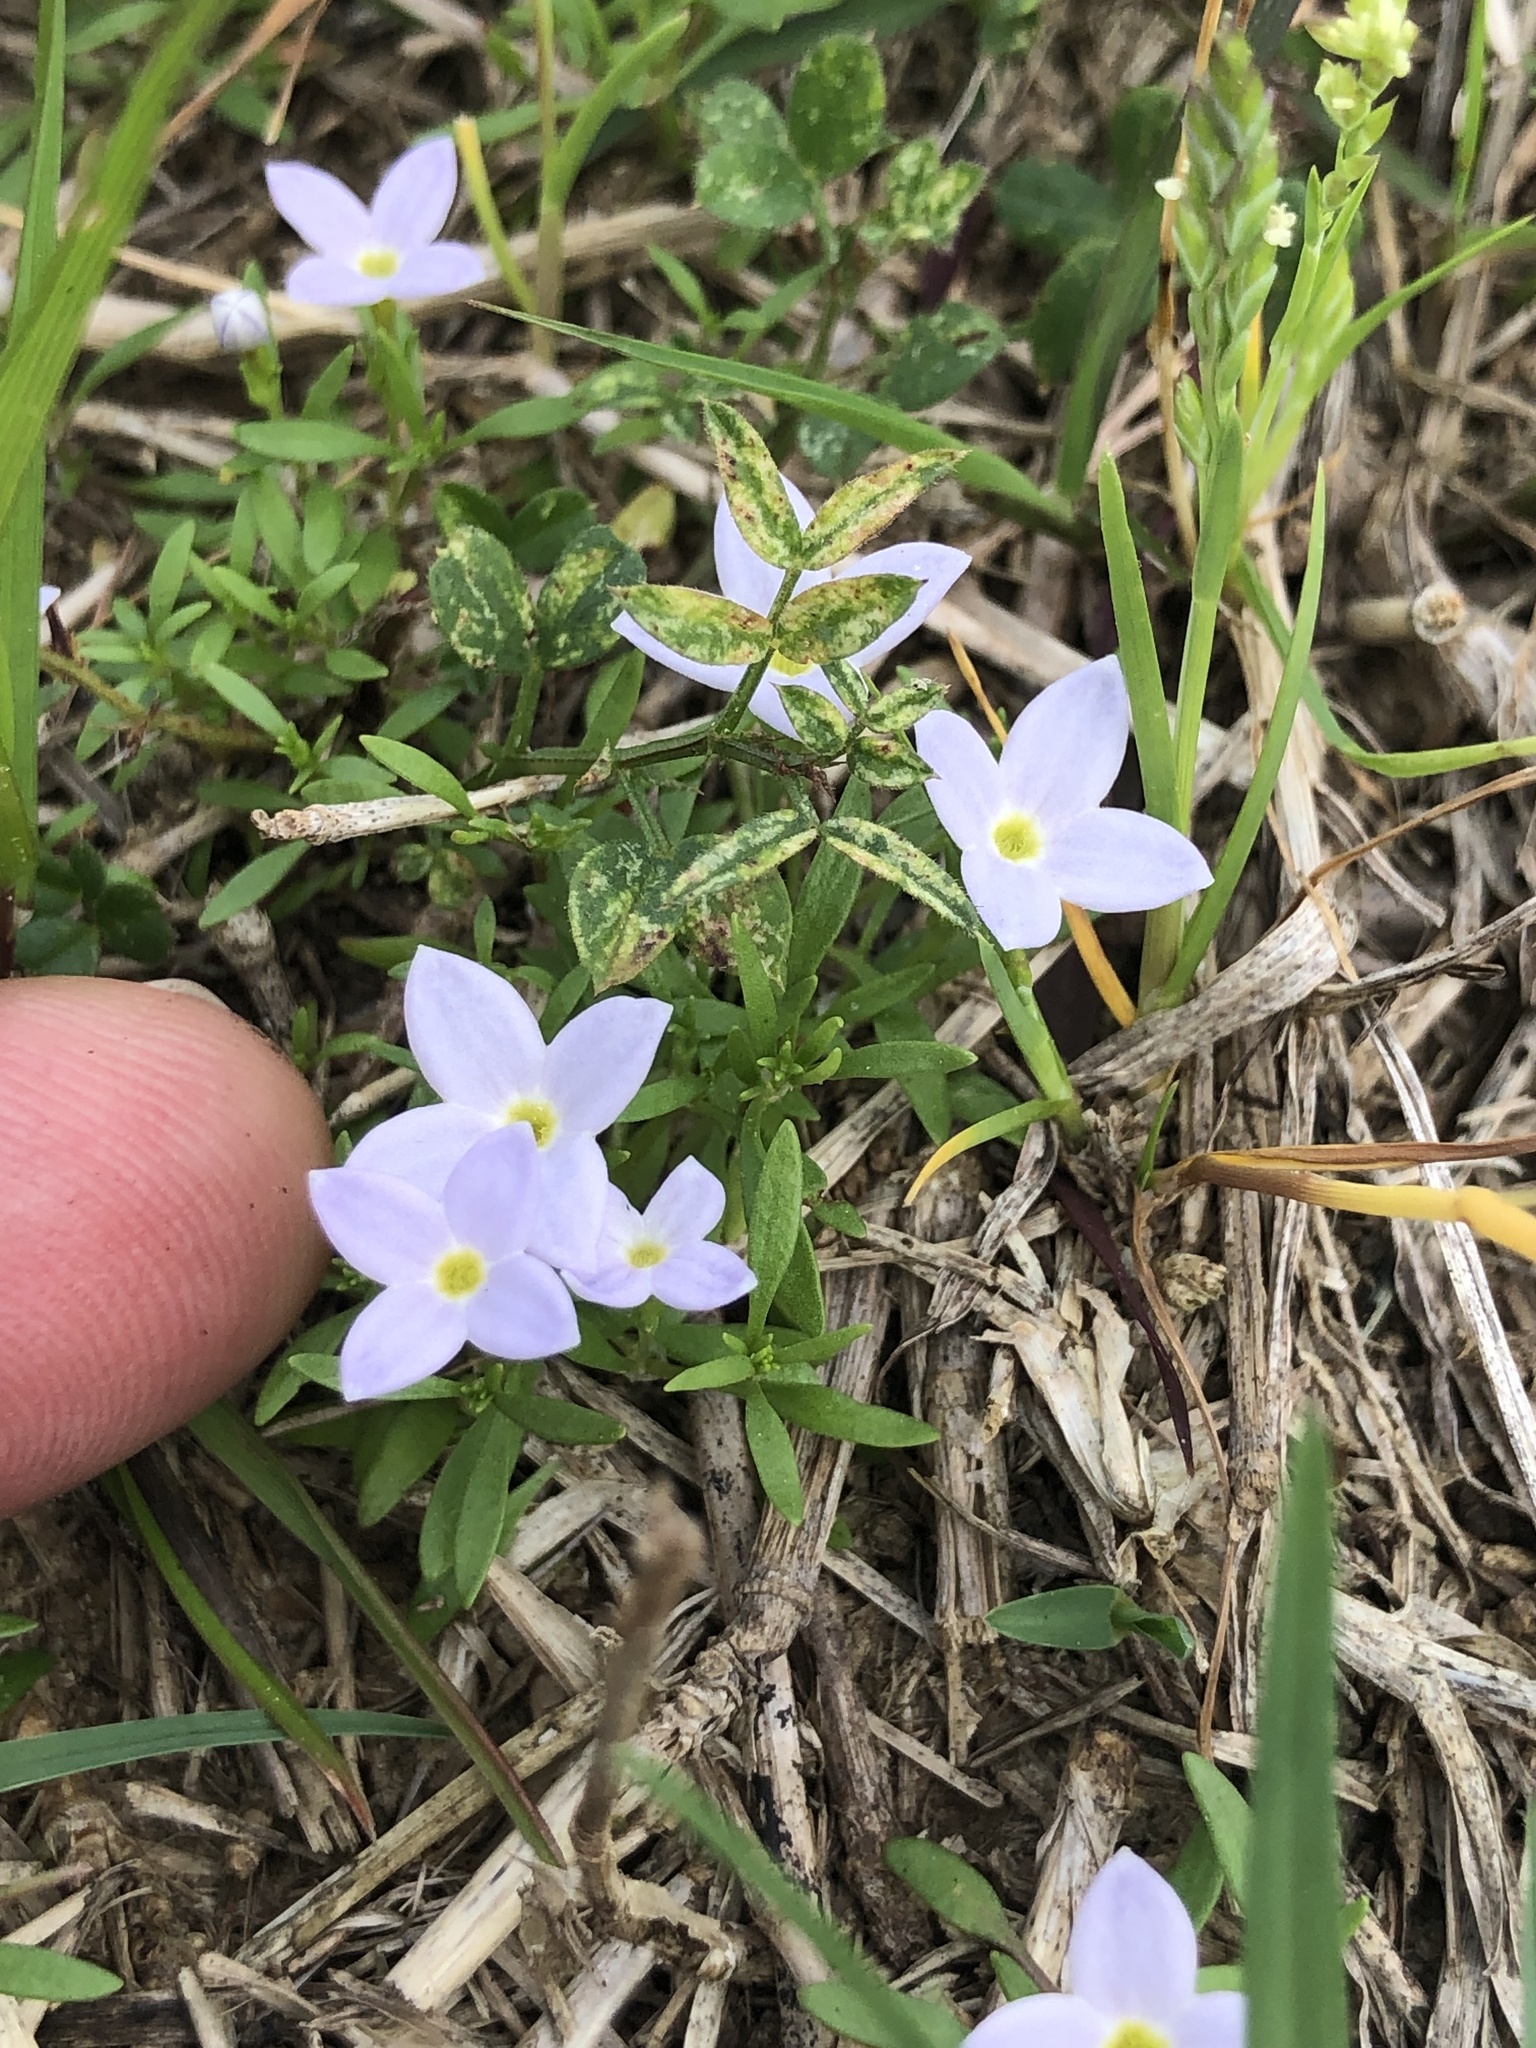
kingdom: Plantae
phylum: Tracheophyta
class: Magnoliopsida
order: Gentianales
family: Rubiaceae
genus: Houstonia
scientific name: Houstonia rosea
